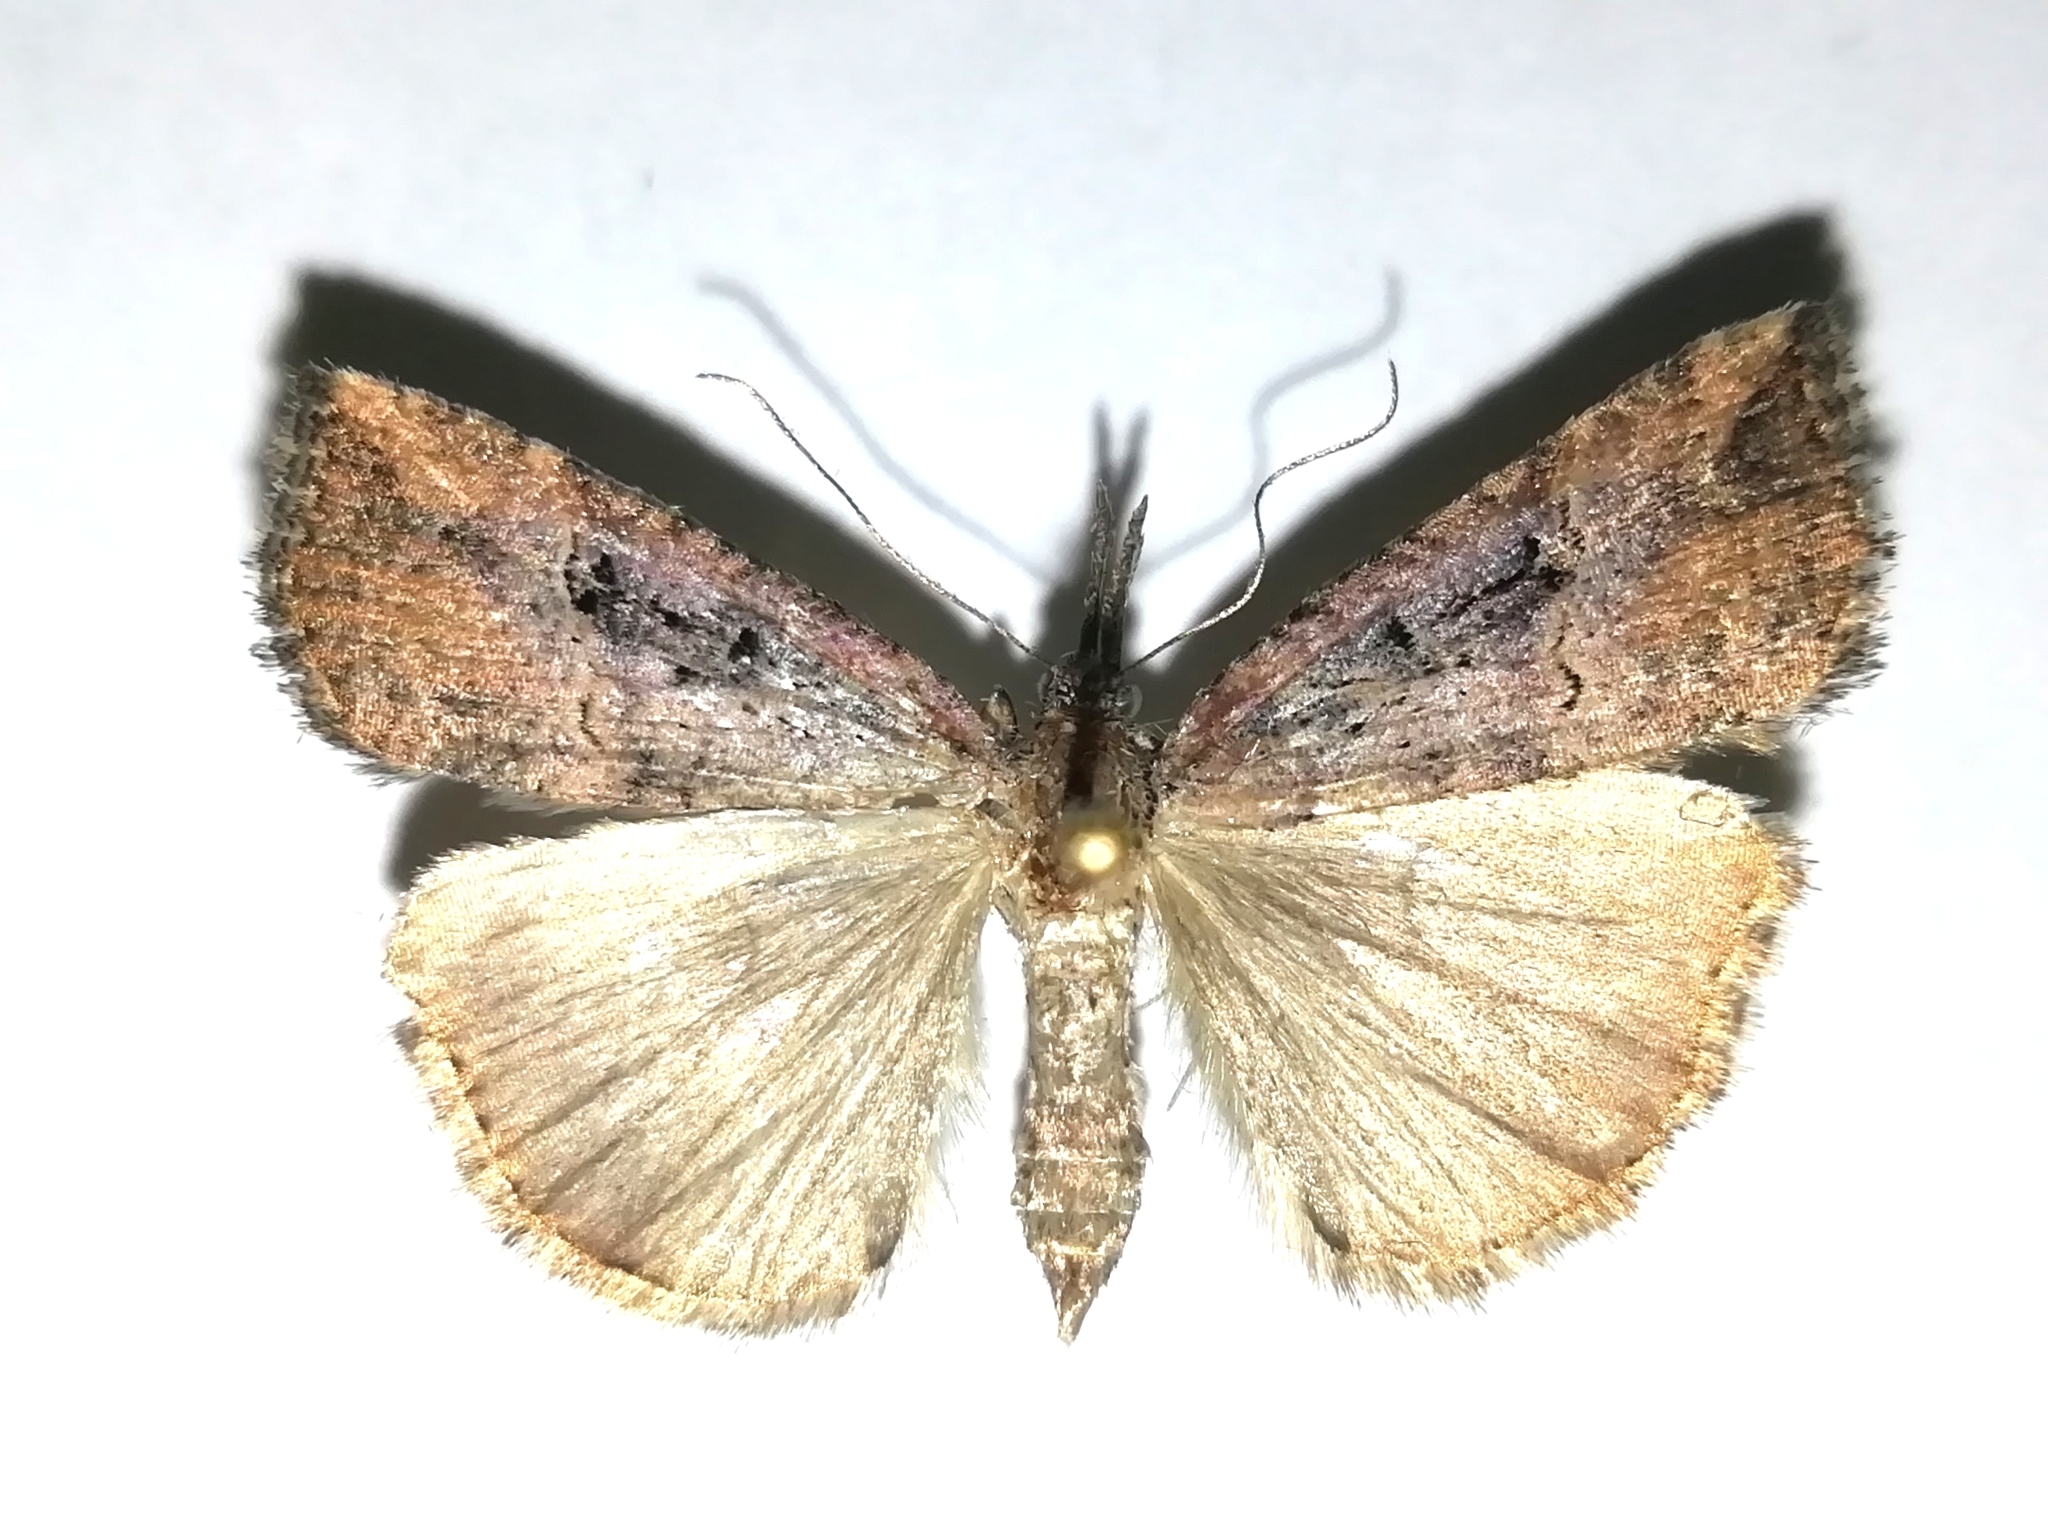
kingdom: Animalia
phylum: Arthropoda
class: Insecta
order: Lepidoptera
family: Erebidae
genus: Hypena
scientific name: Hypena rostralis
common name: Buttoned snout
